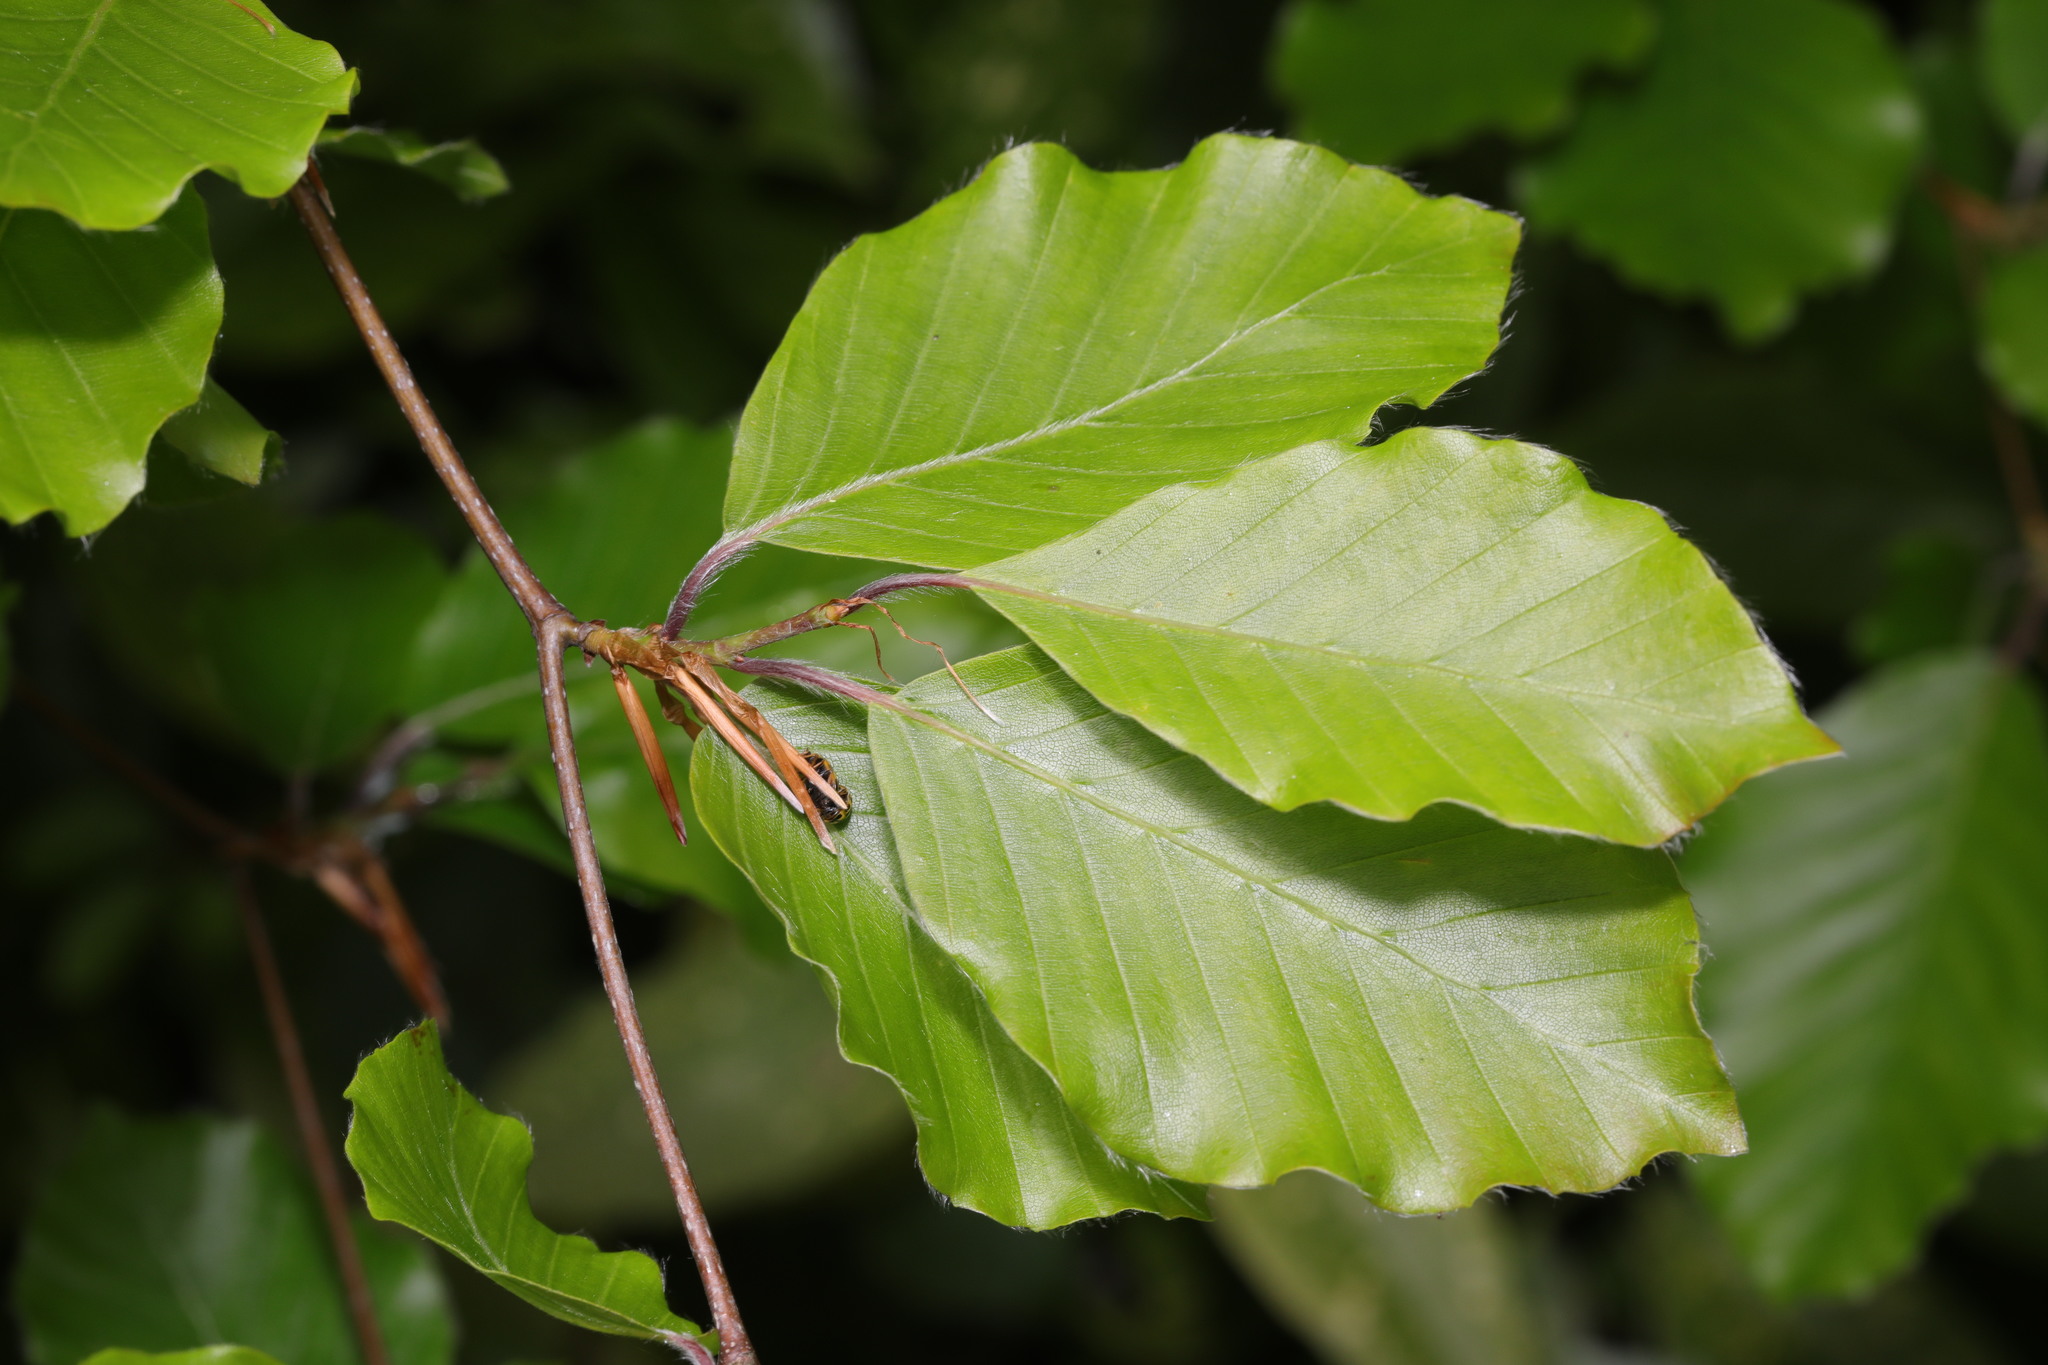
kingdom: Plantae
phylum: Tracheophyta
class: Magnoliopsida
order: Fagales
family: Fagaceae
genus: Fagus
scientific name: Fagus sylvatica
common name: Beech
